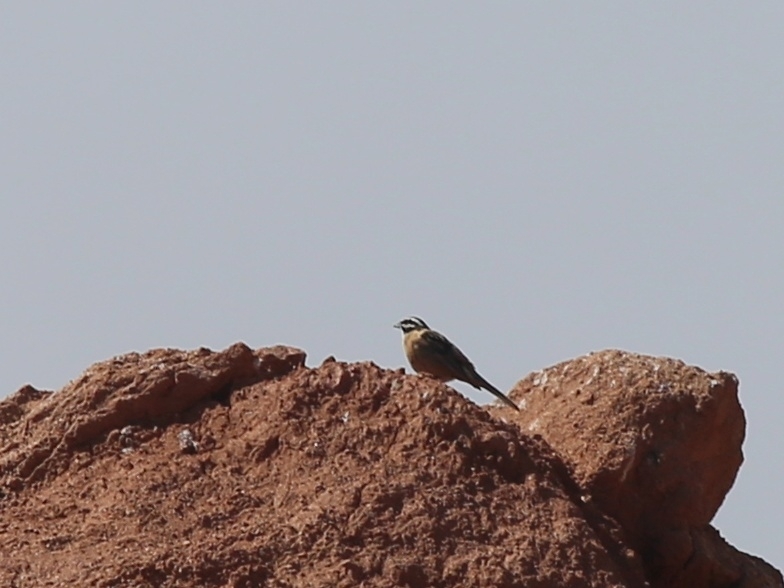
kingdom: Animalia
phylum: Chordata
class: Aves
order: Passeriformes
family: Emberizidae
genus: Emberiza
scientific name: Emberiza cia
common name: Rock bunting
